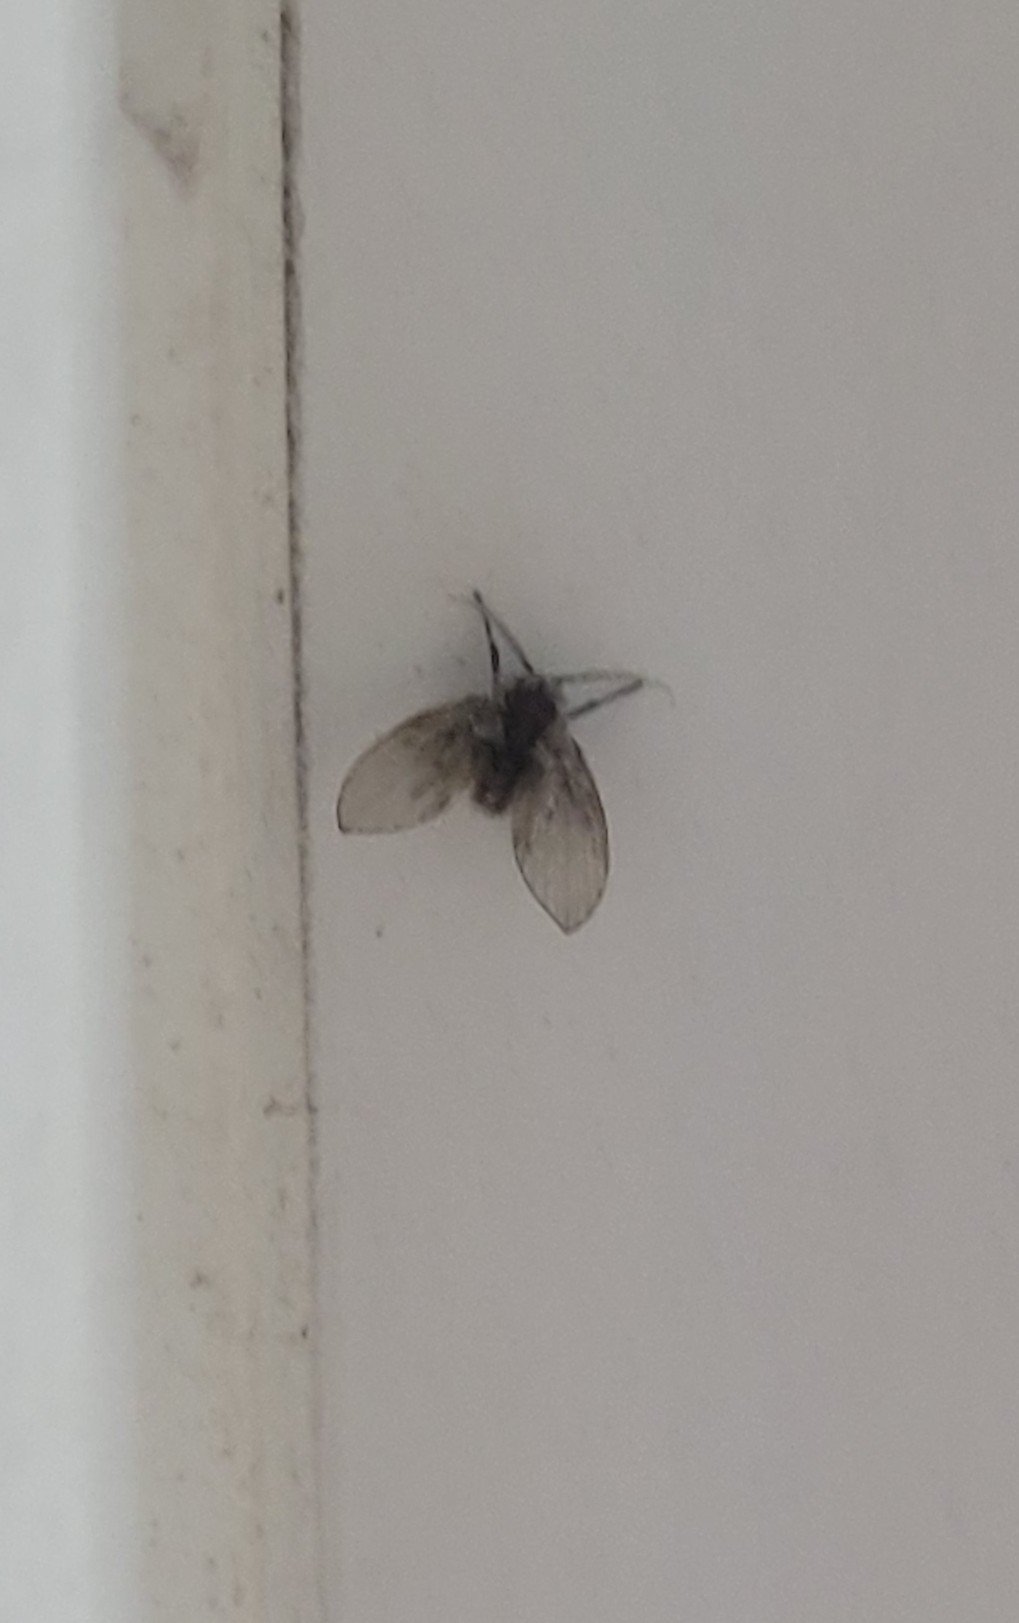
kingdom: Animalia
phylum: Arthropoda
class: Insecta
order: Diptera
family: Psychodidae
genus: Clogmia
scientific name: Clogmia albipunctatus
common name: White-spotted moth fly
